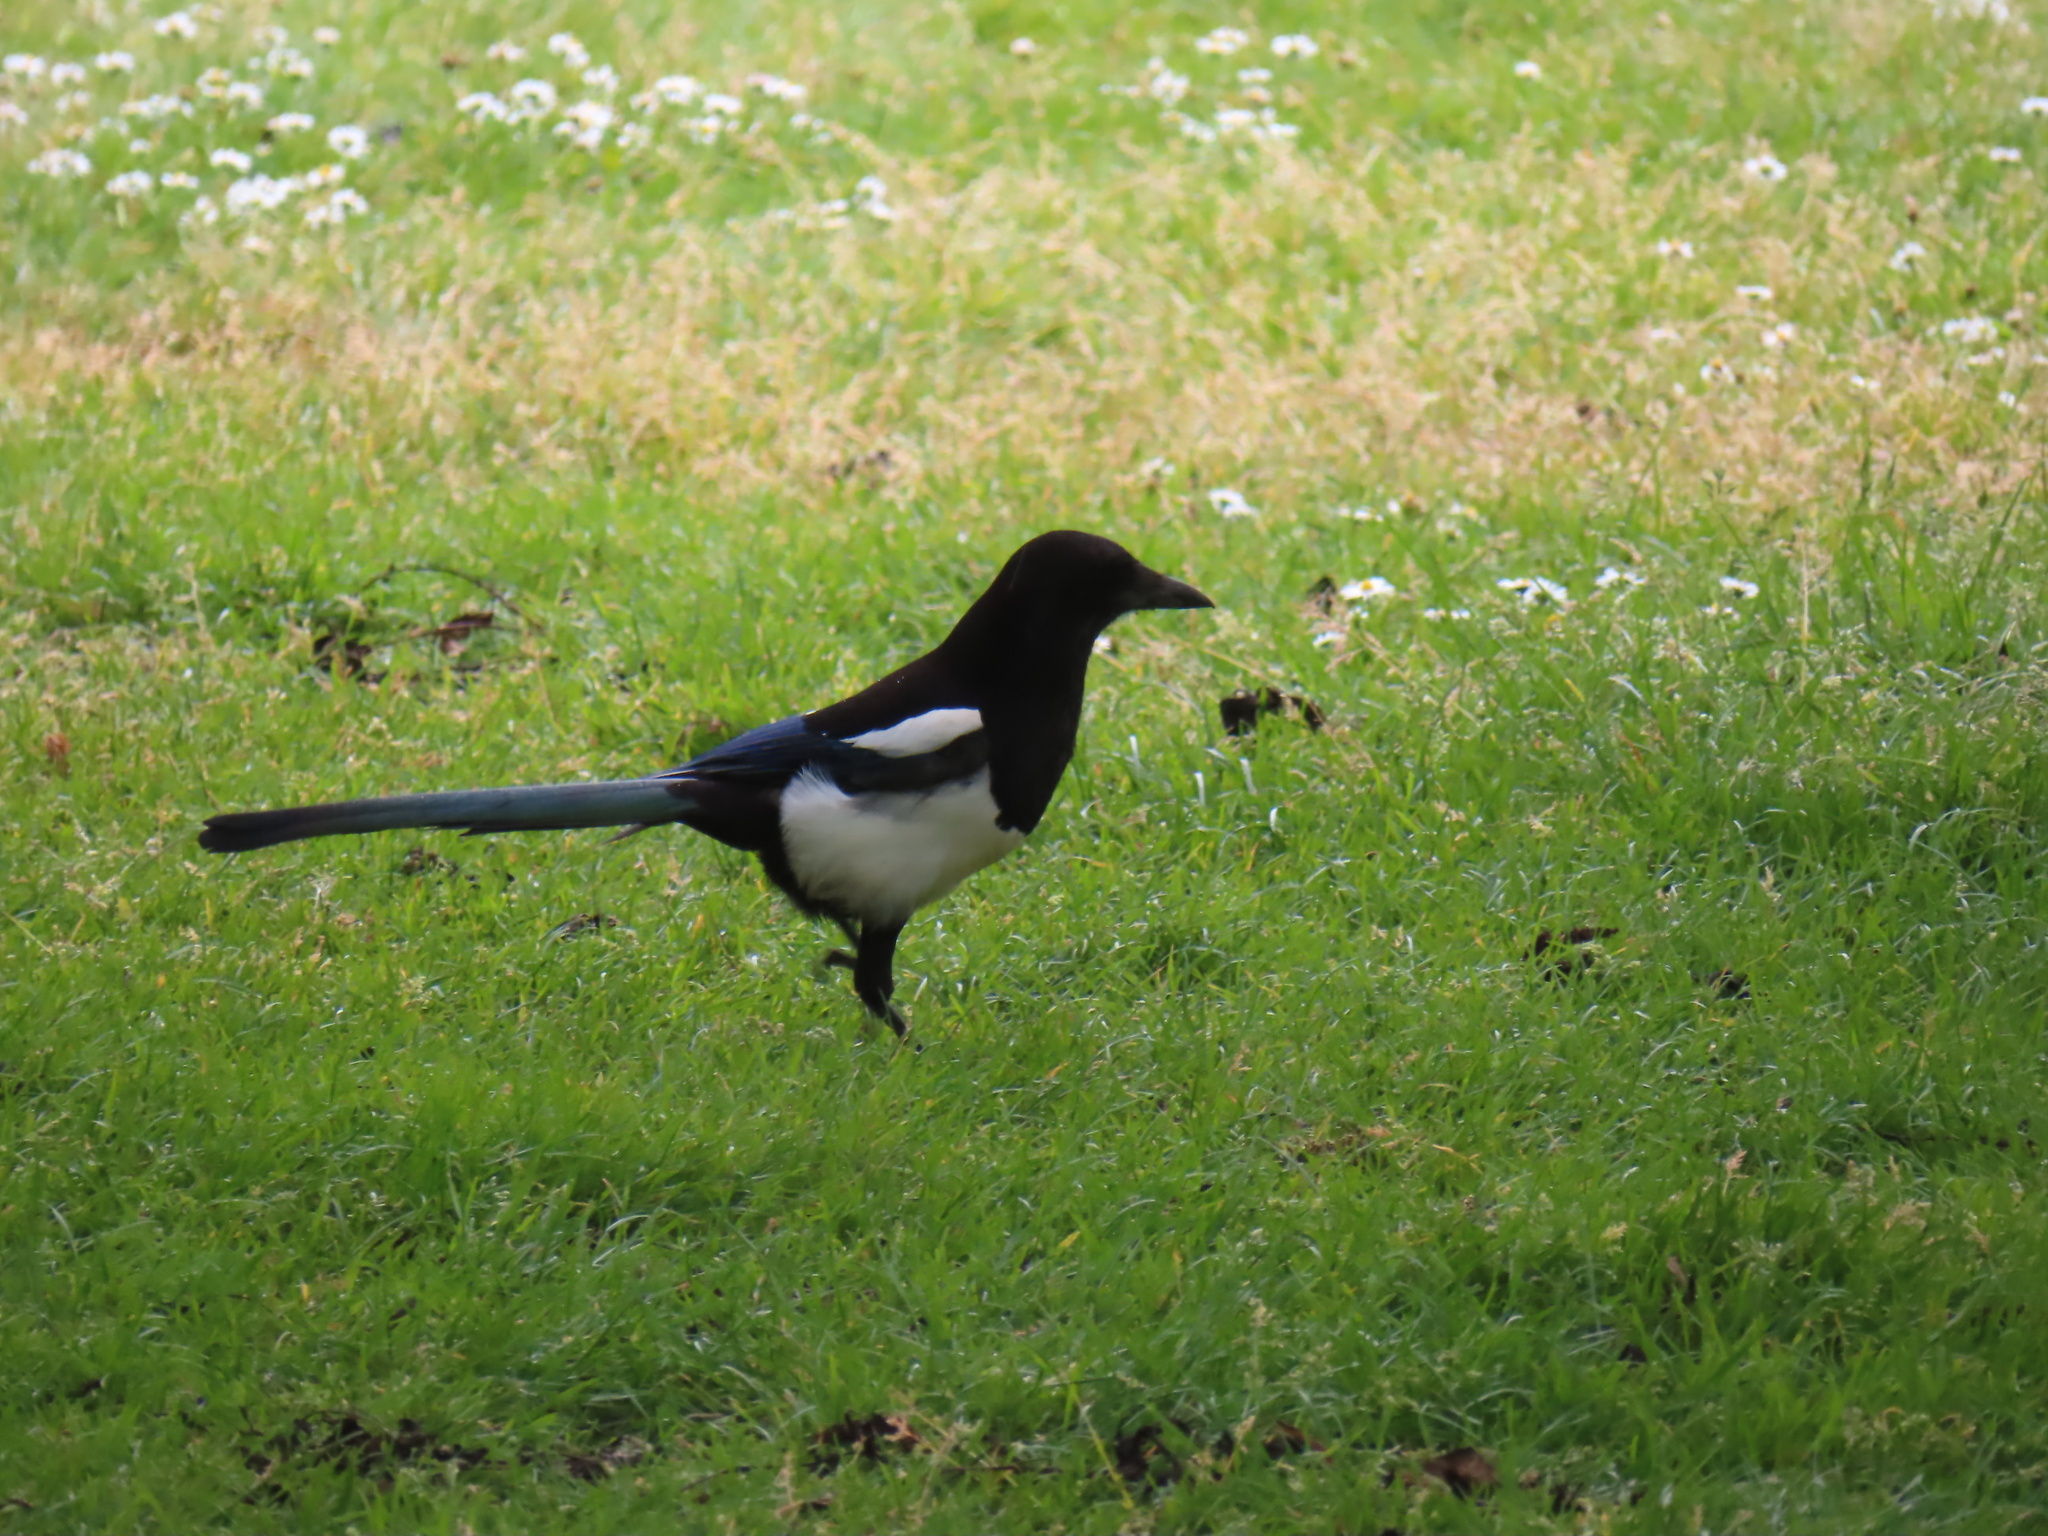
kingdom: Animalia
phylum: Chordata
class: Aves
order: Passeriformes
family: Corvidae
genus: Pica
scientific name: Pica pica
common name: Eurasian magpie
